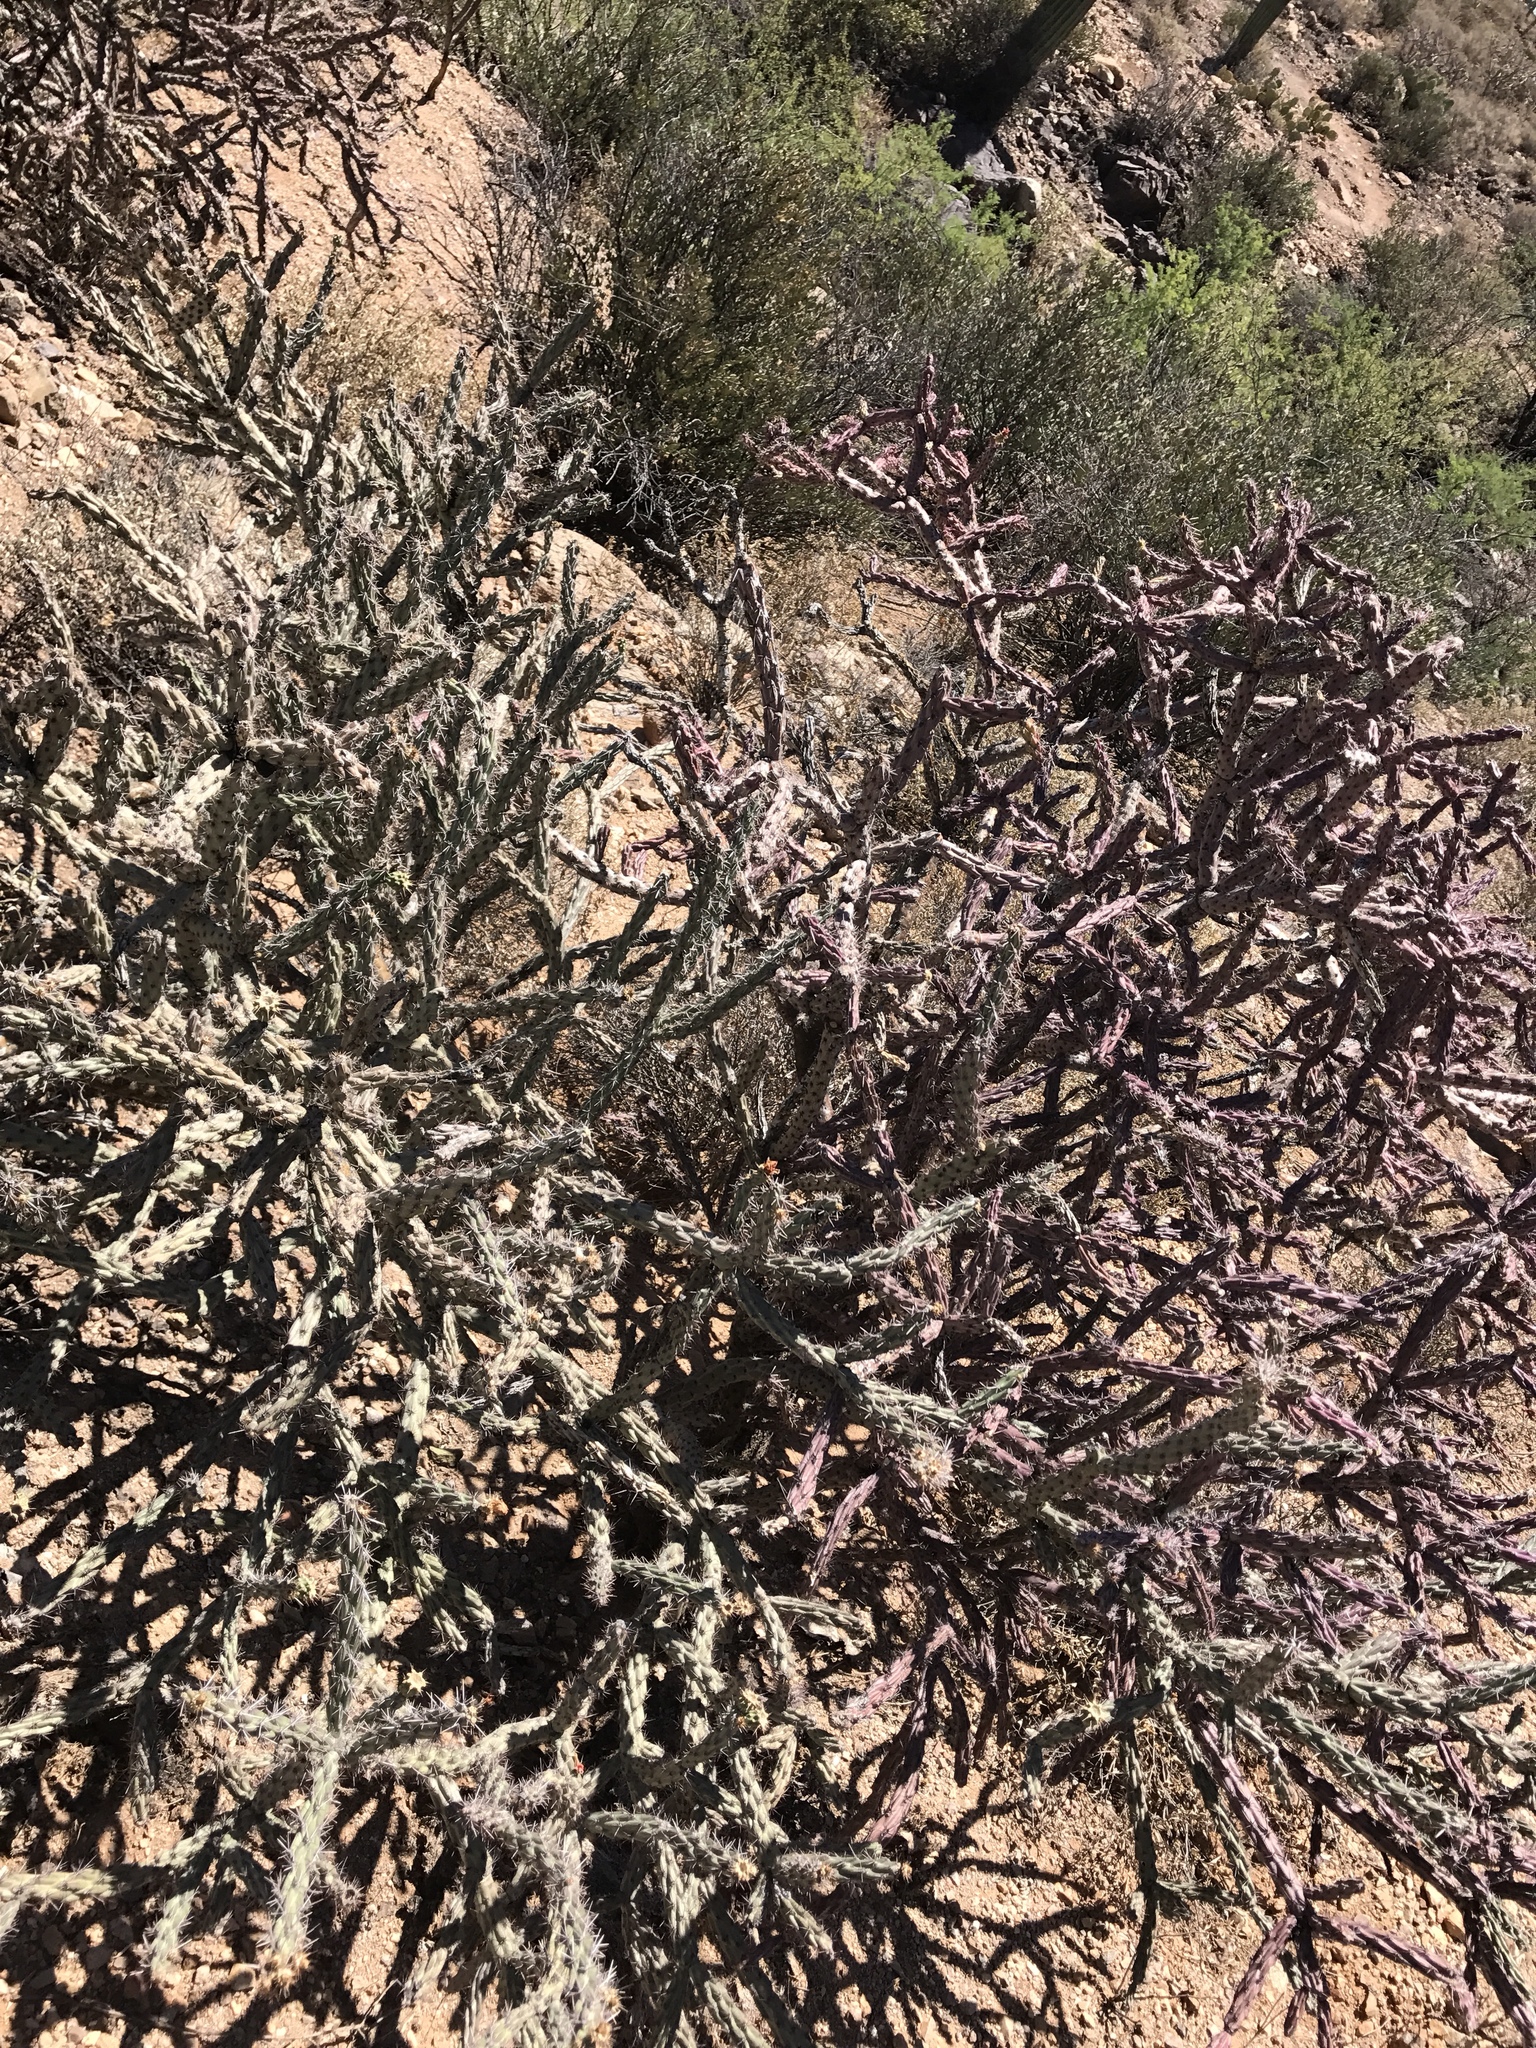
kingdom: Plantae
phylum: Tracheophyta
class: Magnoliopsida
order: Caryophyllales
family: Cactaceae
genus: Cylindropuntia
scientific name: Cylindropuntia acanthocarpa
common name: Buckhorn cholla
